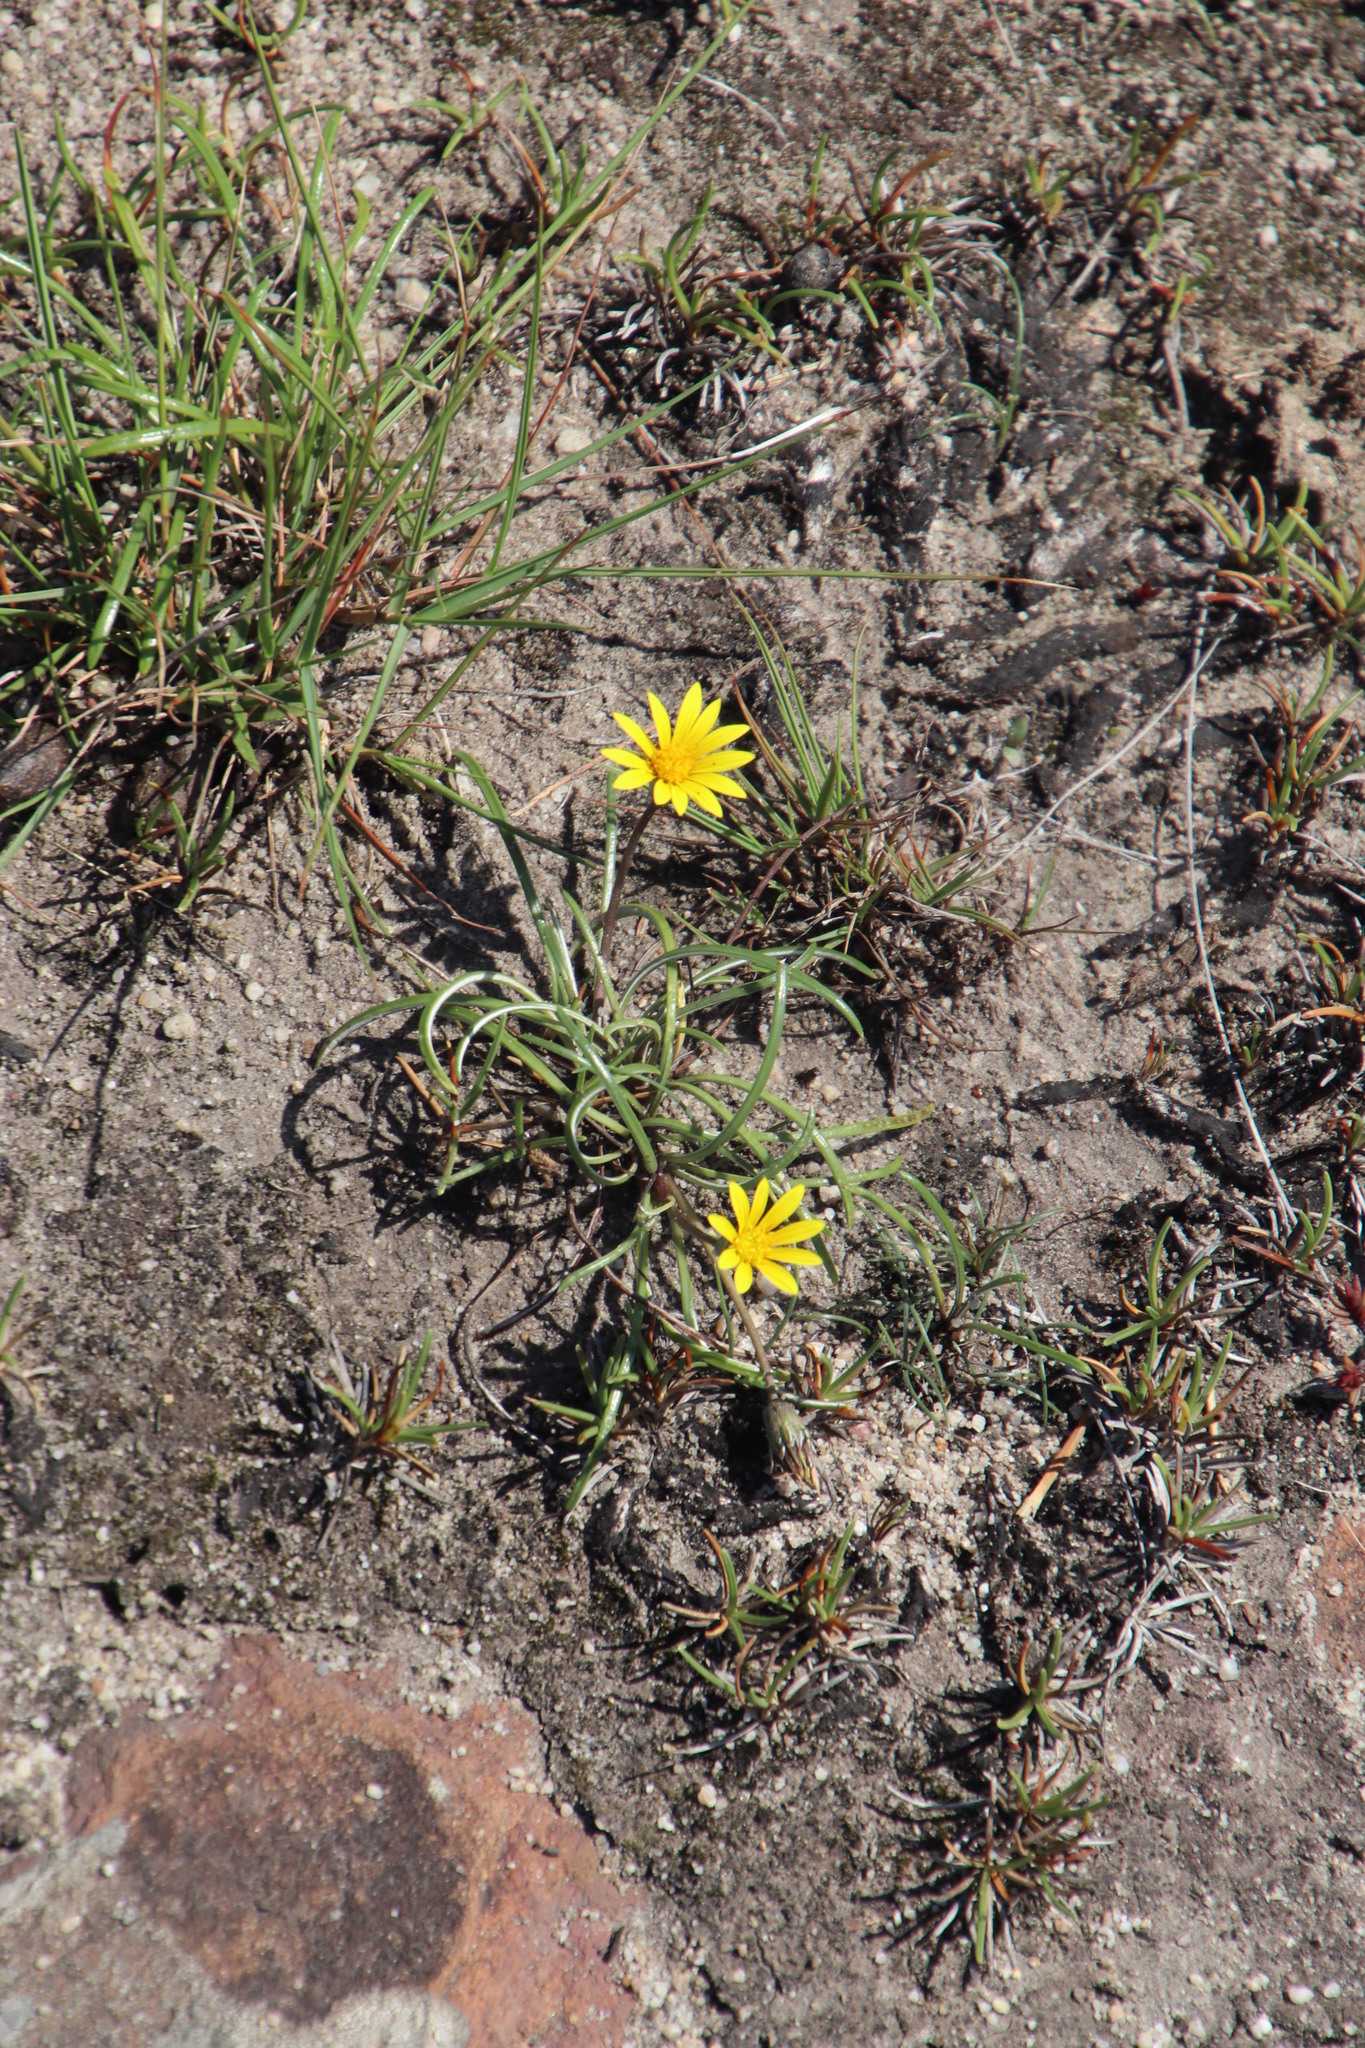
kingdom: Plantae
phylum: Tracheophyta
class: Magnoliopsida
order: Asterales
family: Asteraceae
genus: Gazania
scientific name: Gazania linearis
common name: Treasureflower
